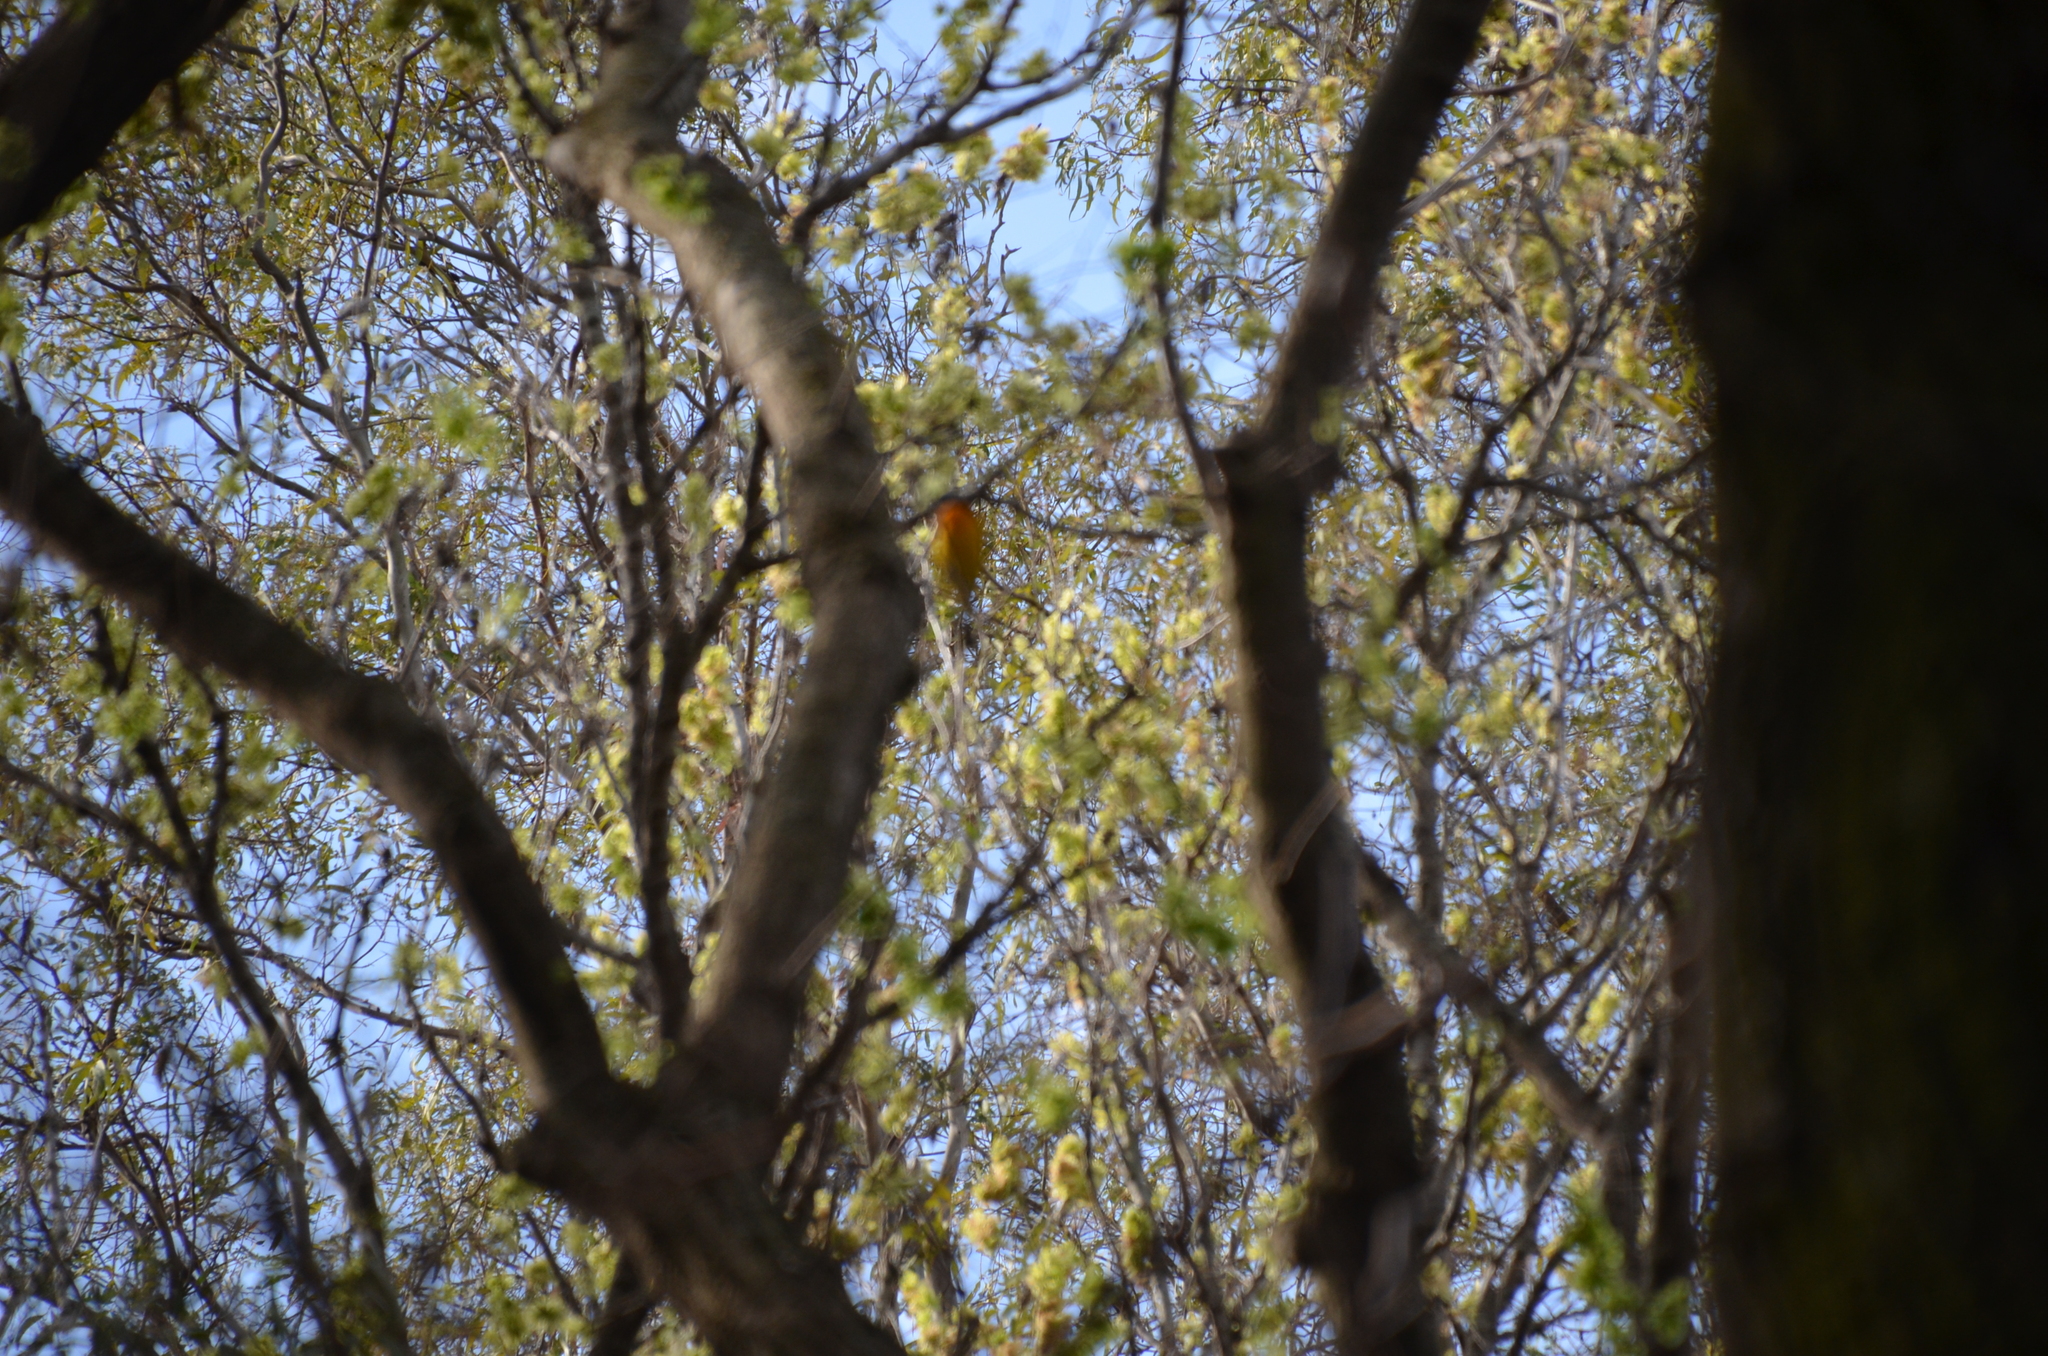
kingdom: Animalia
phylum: Chordata
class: Aves
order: Passeriformes
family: Thraupidae
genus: Rauenia
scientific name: Rauenia bonariensis
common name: Blue-and-yellow tanager
